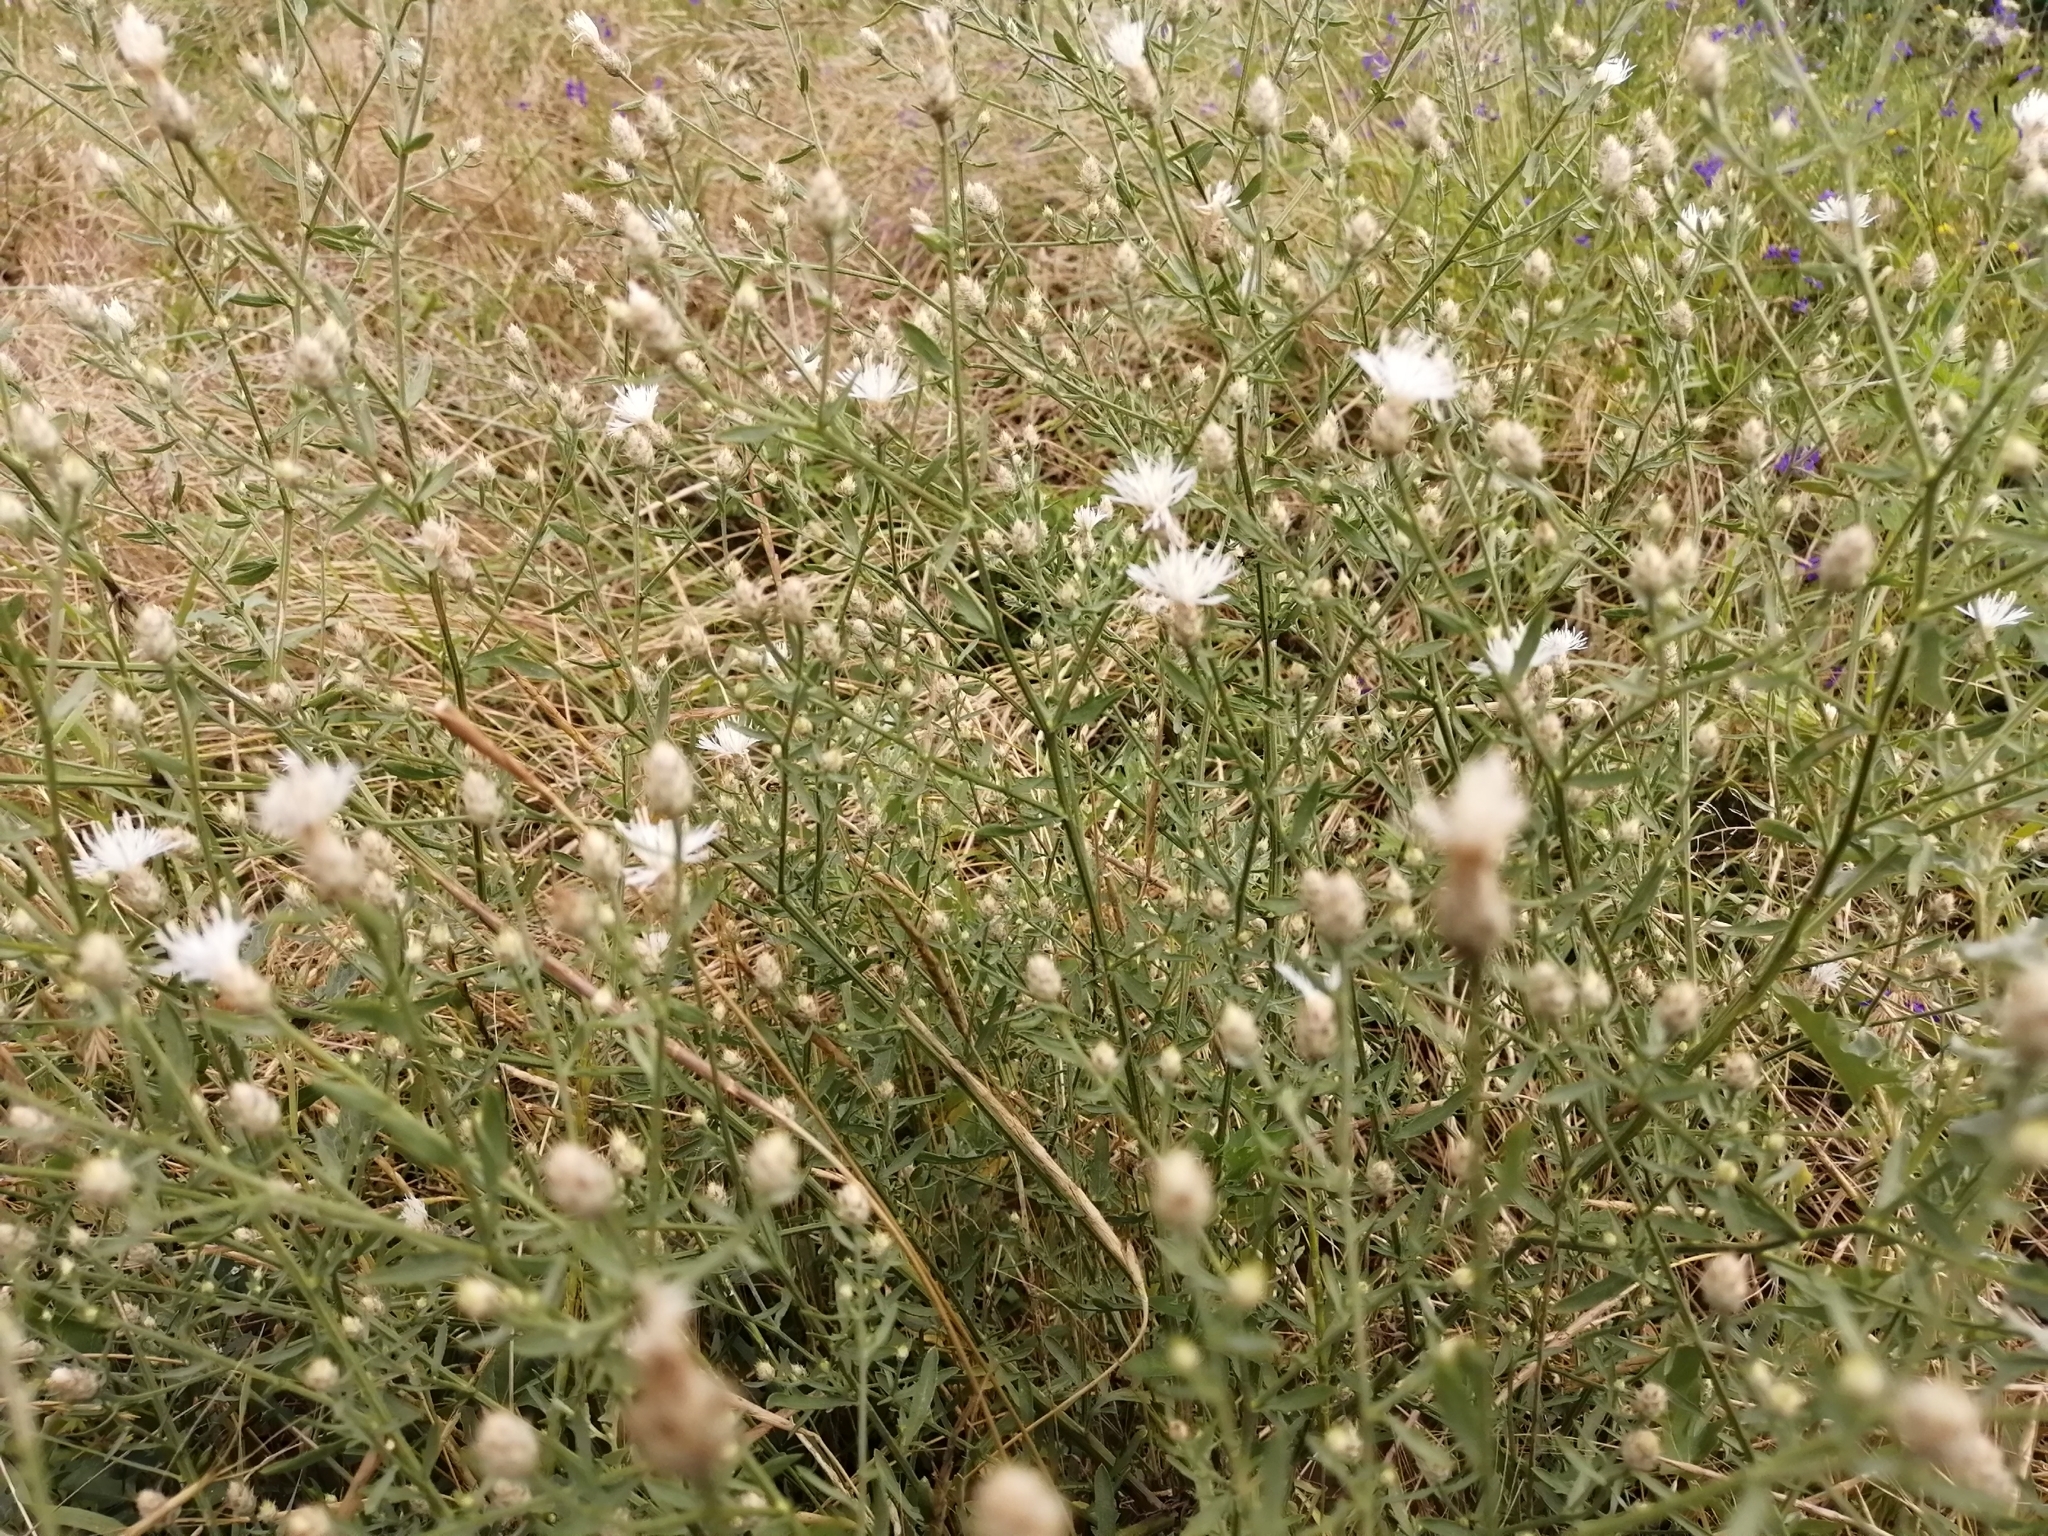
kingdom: Plantae
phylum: Tracheophyta
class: Magnoliopsida
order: Asterales
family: Asteraceae
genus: Centaurea
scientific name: Centaurea diffusa
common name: Diffuse knapweed
